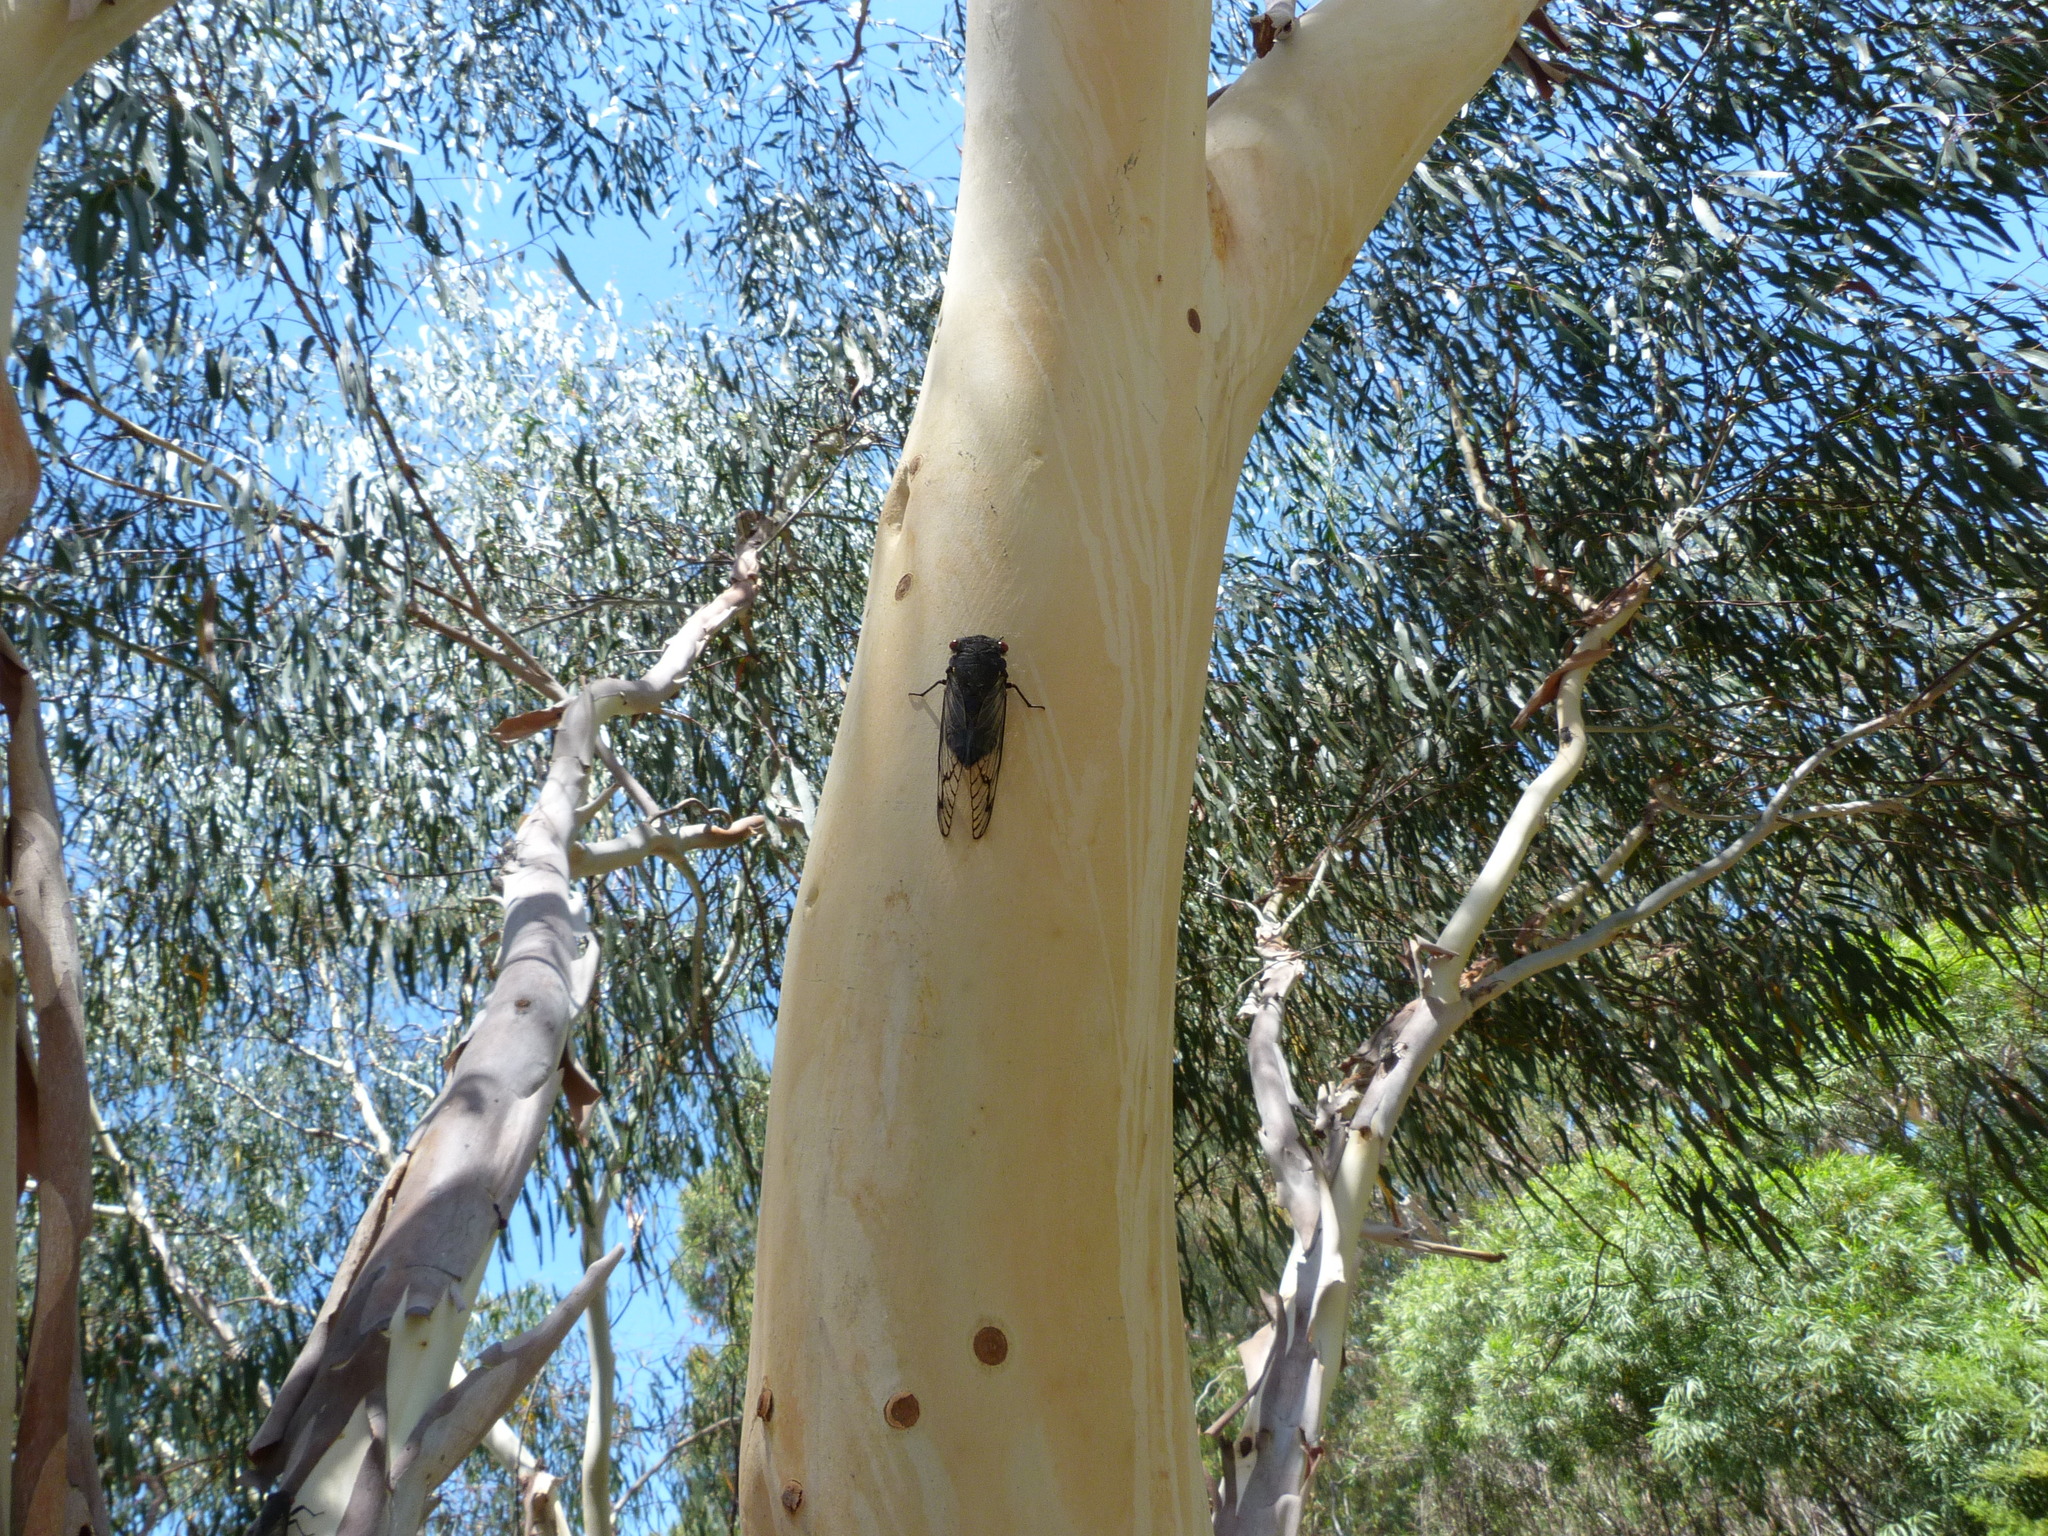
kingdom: Animalia
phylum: Arthropoda
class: Insecta
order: Hemiptera
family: Cicadidae
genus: Psaltoda
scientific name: Psaltoda moerens
